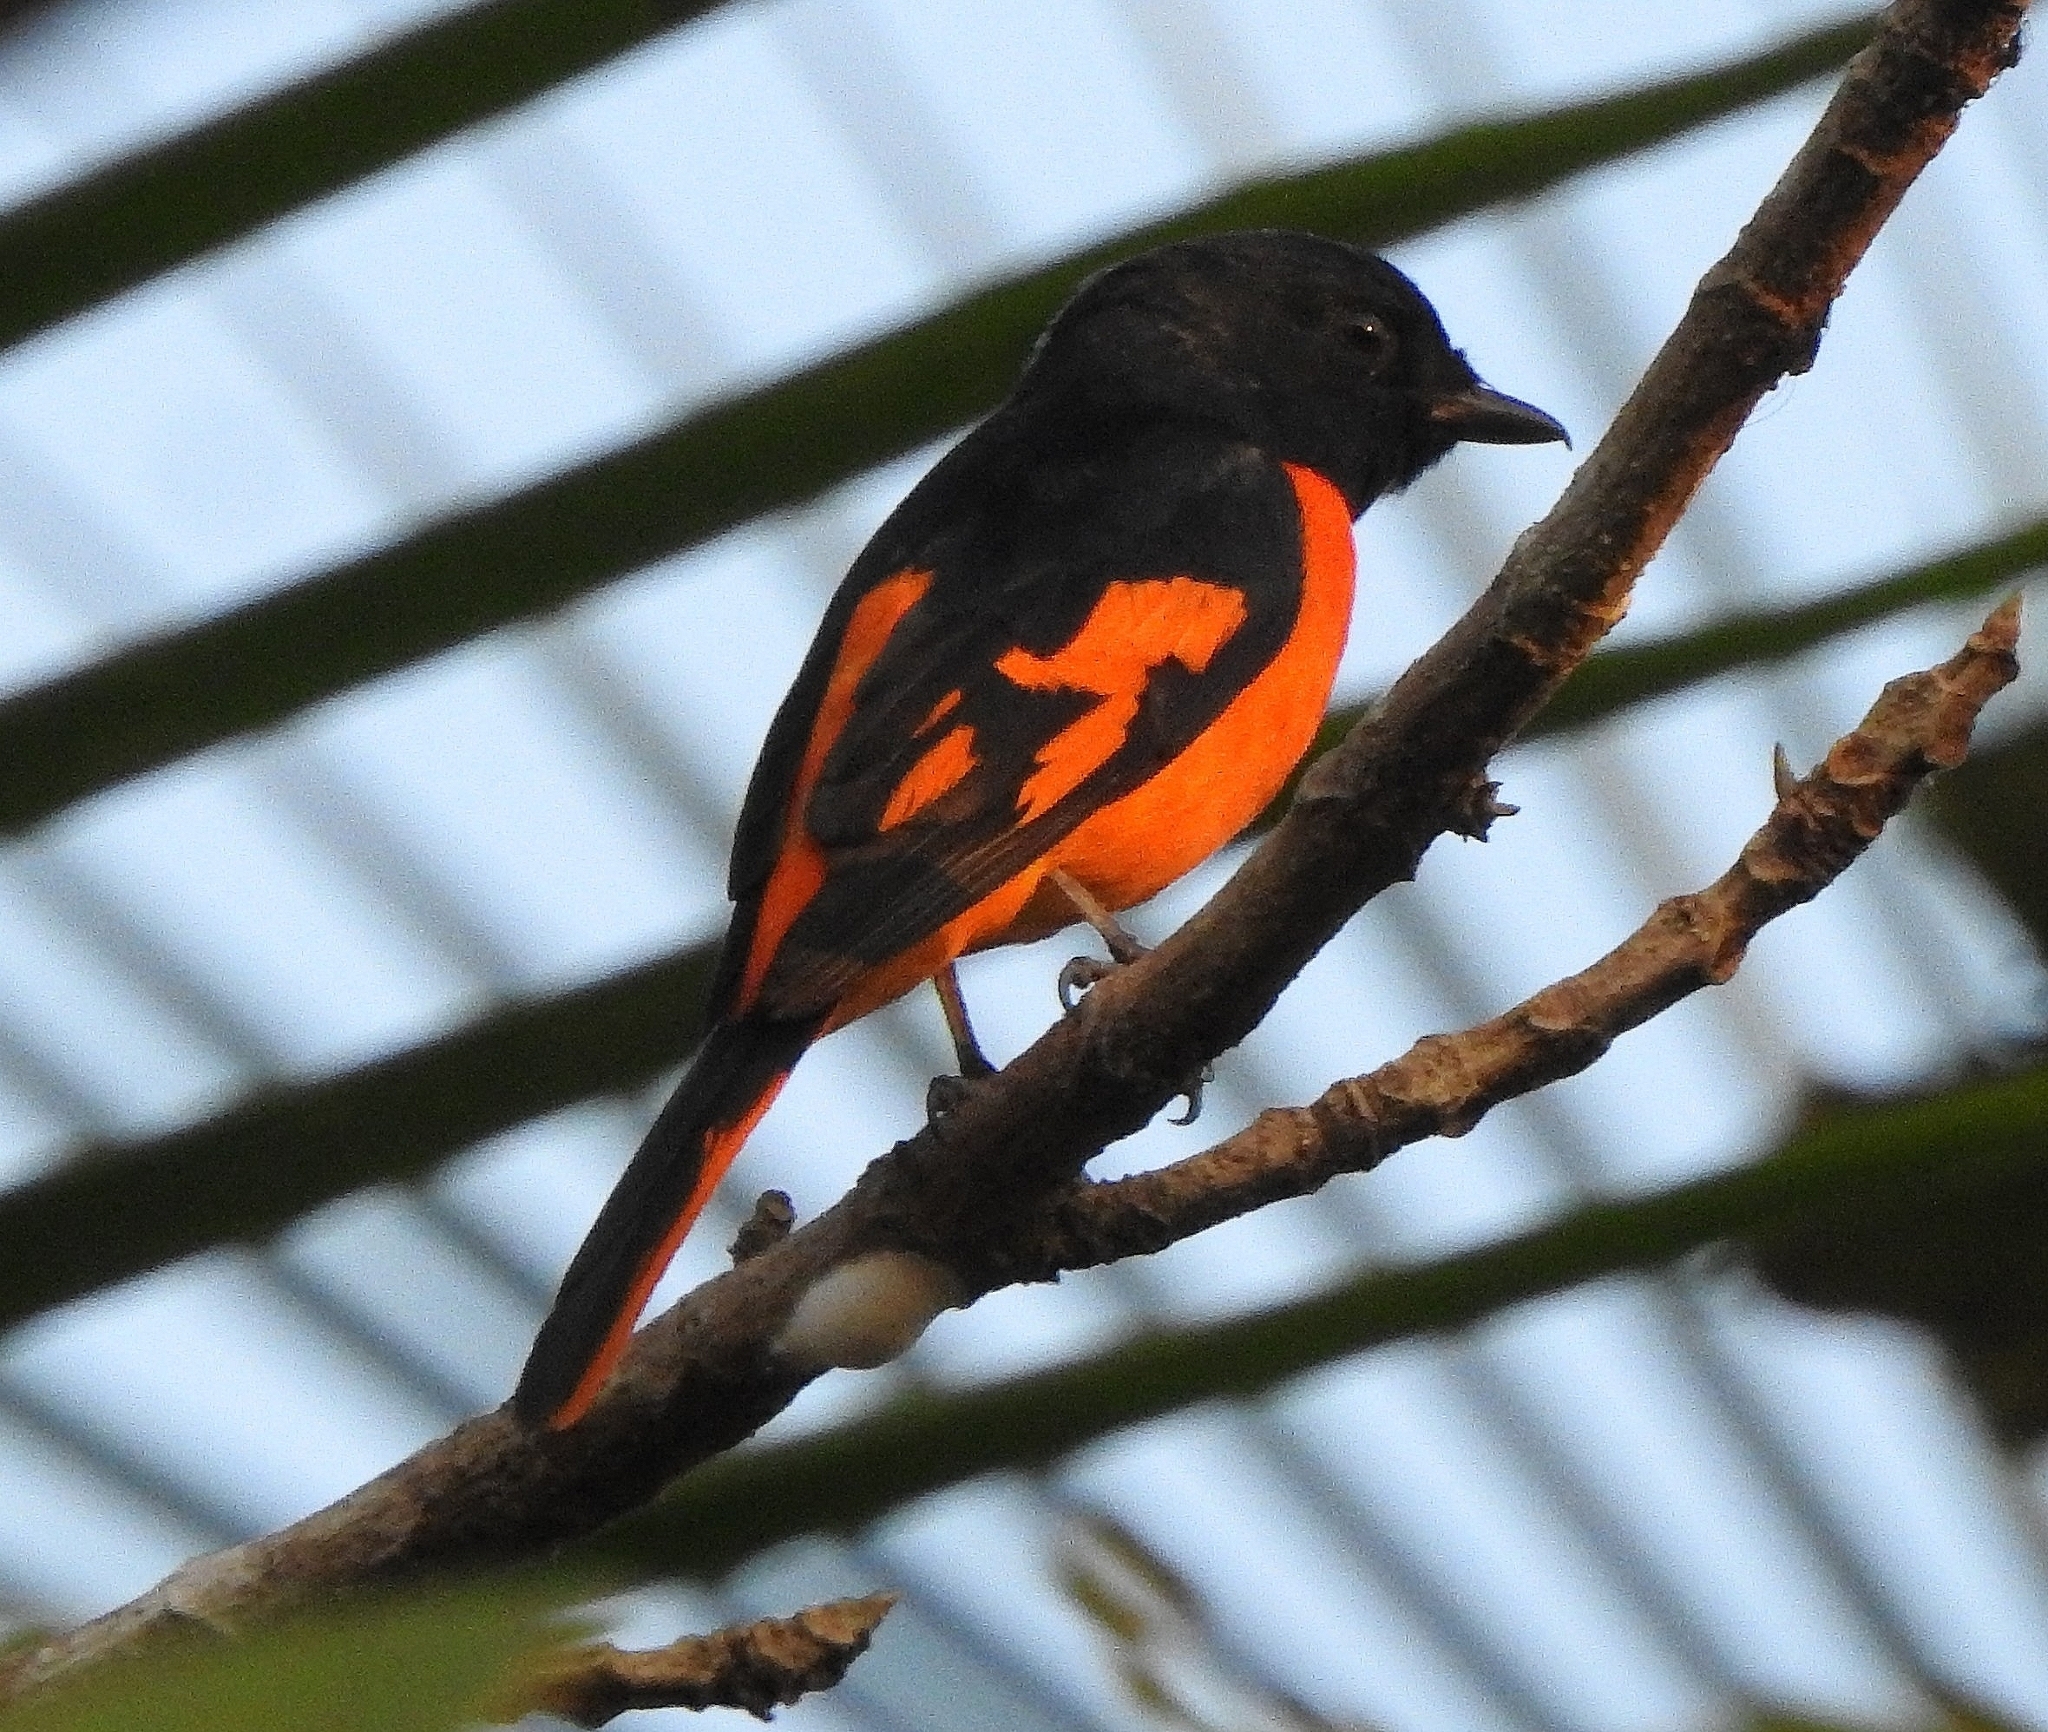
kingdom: Animalia
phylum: Chordata
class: Aves
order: Passeriformes
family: Campephagidae
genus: Pericrocotus
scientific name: Pericrocotus flammeus
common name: Orange minivet
